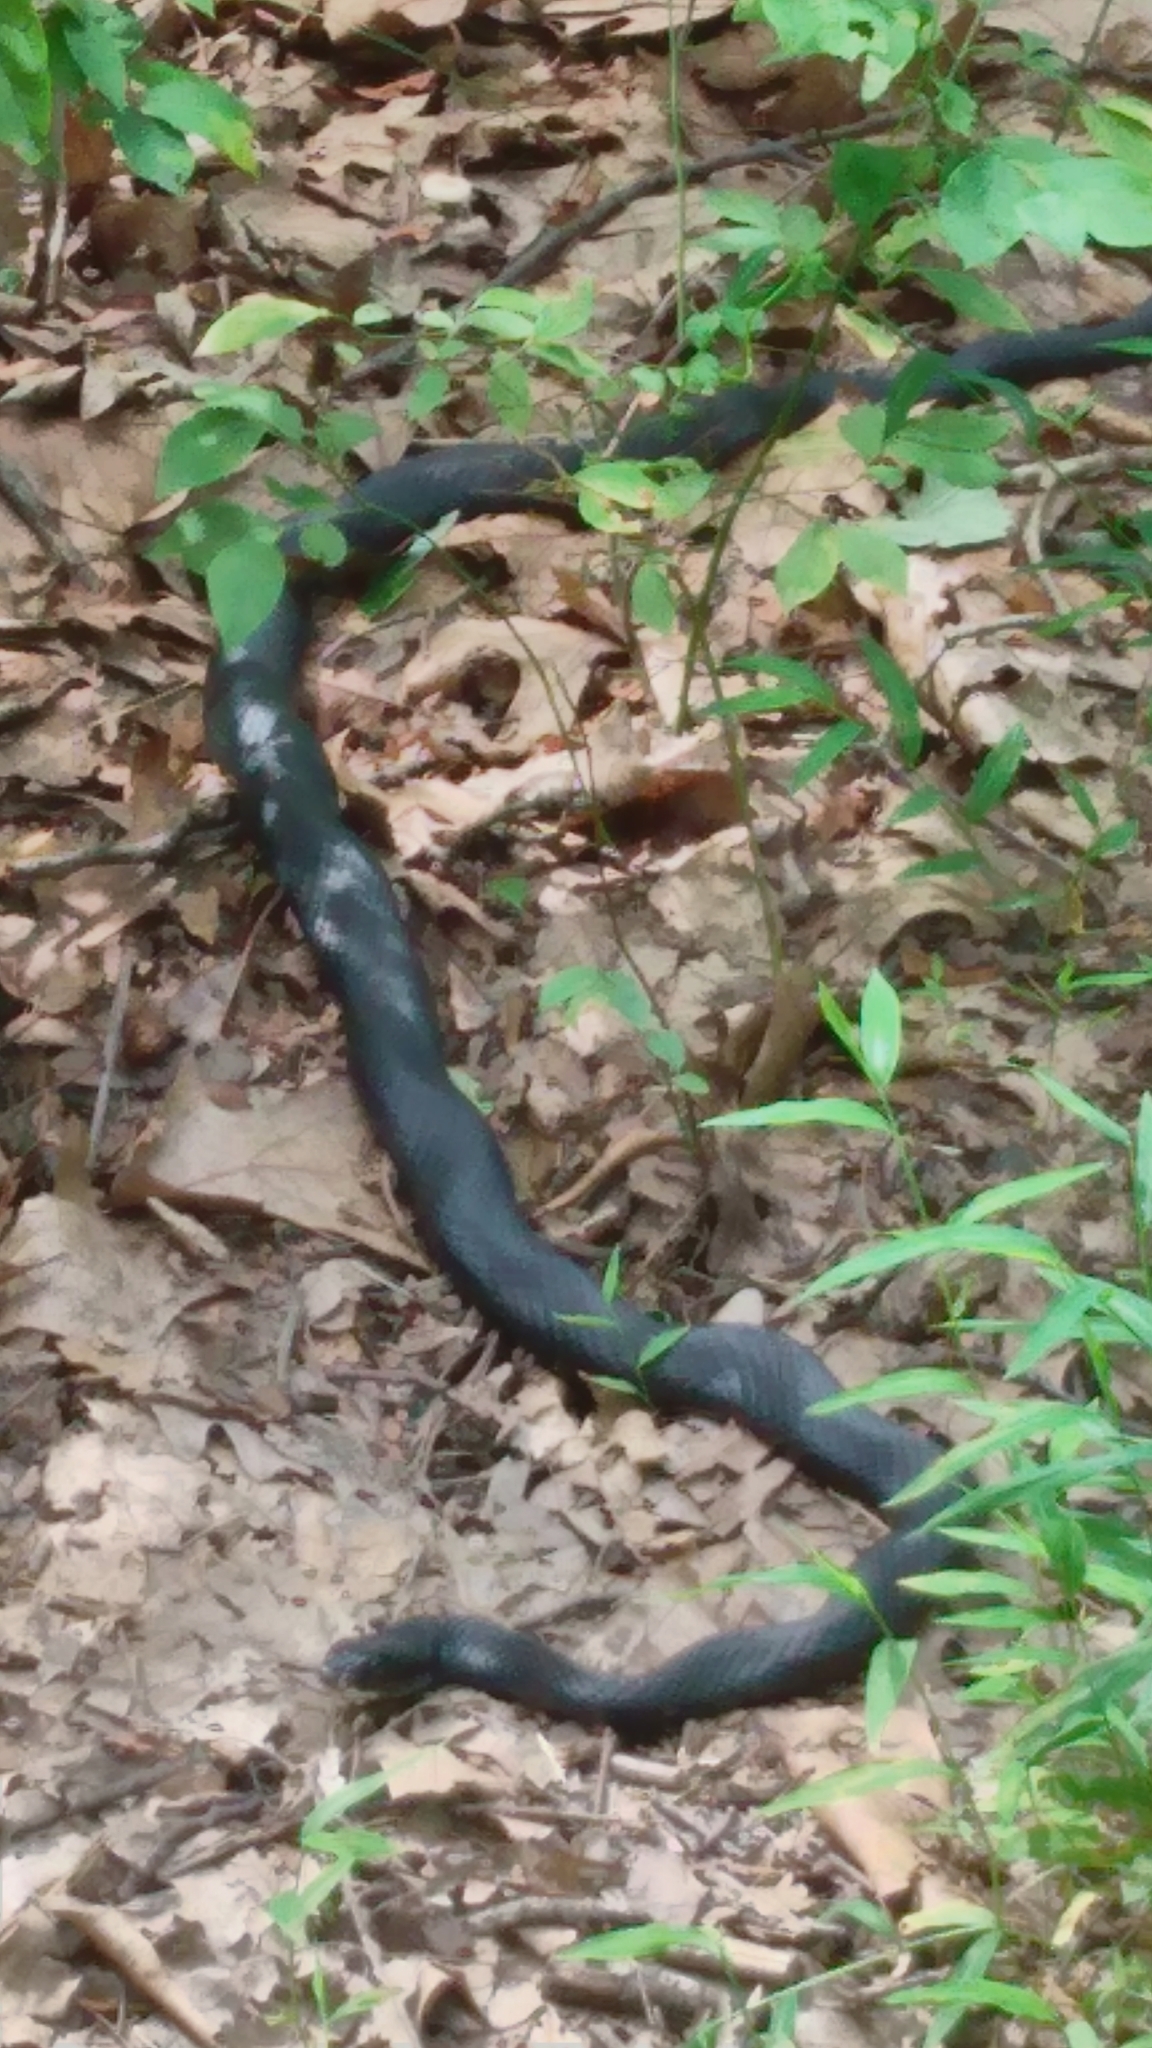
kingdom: Animalia
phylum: Chordata
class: Squamata
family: Colubridae
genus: Coluber
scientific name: Coluber constrictor
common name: Eastern racer
